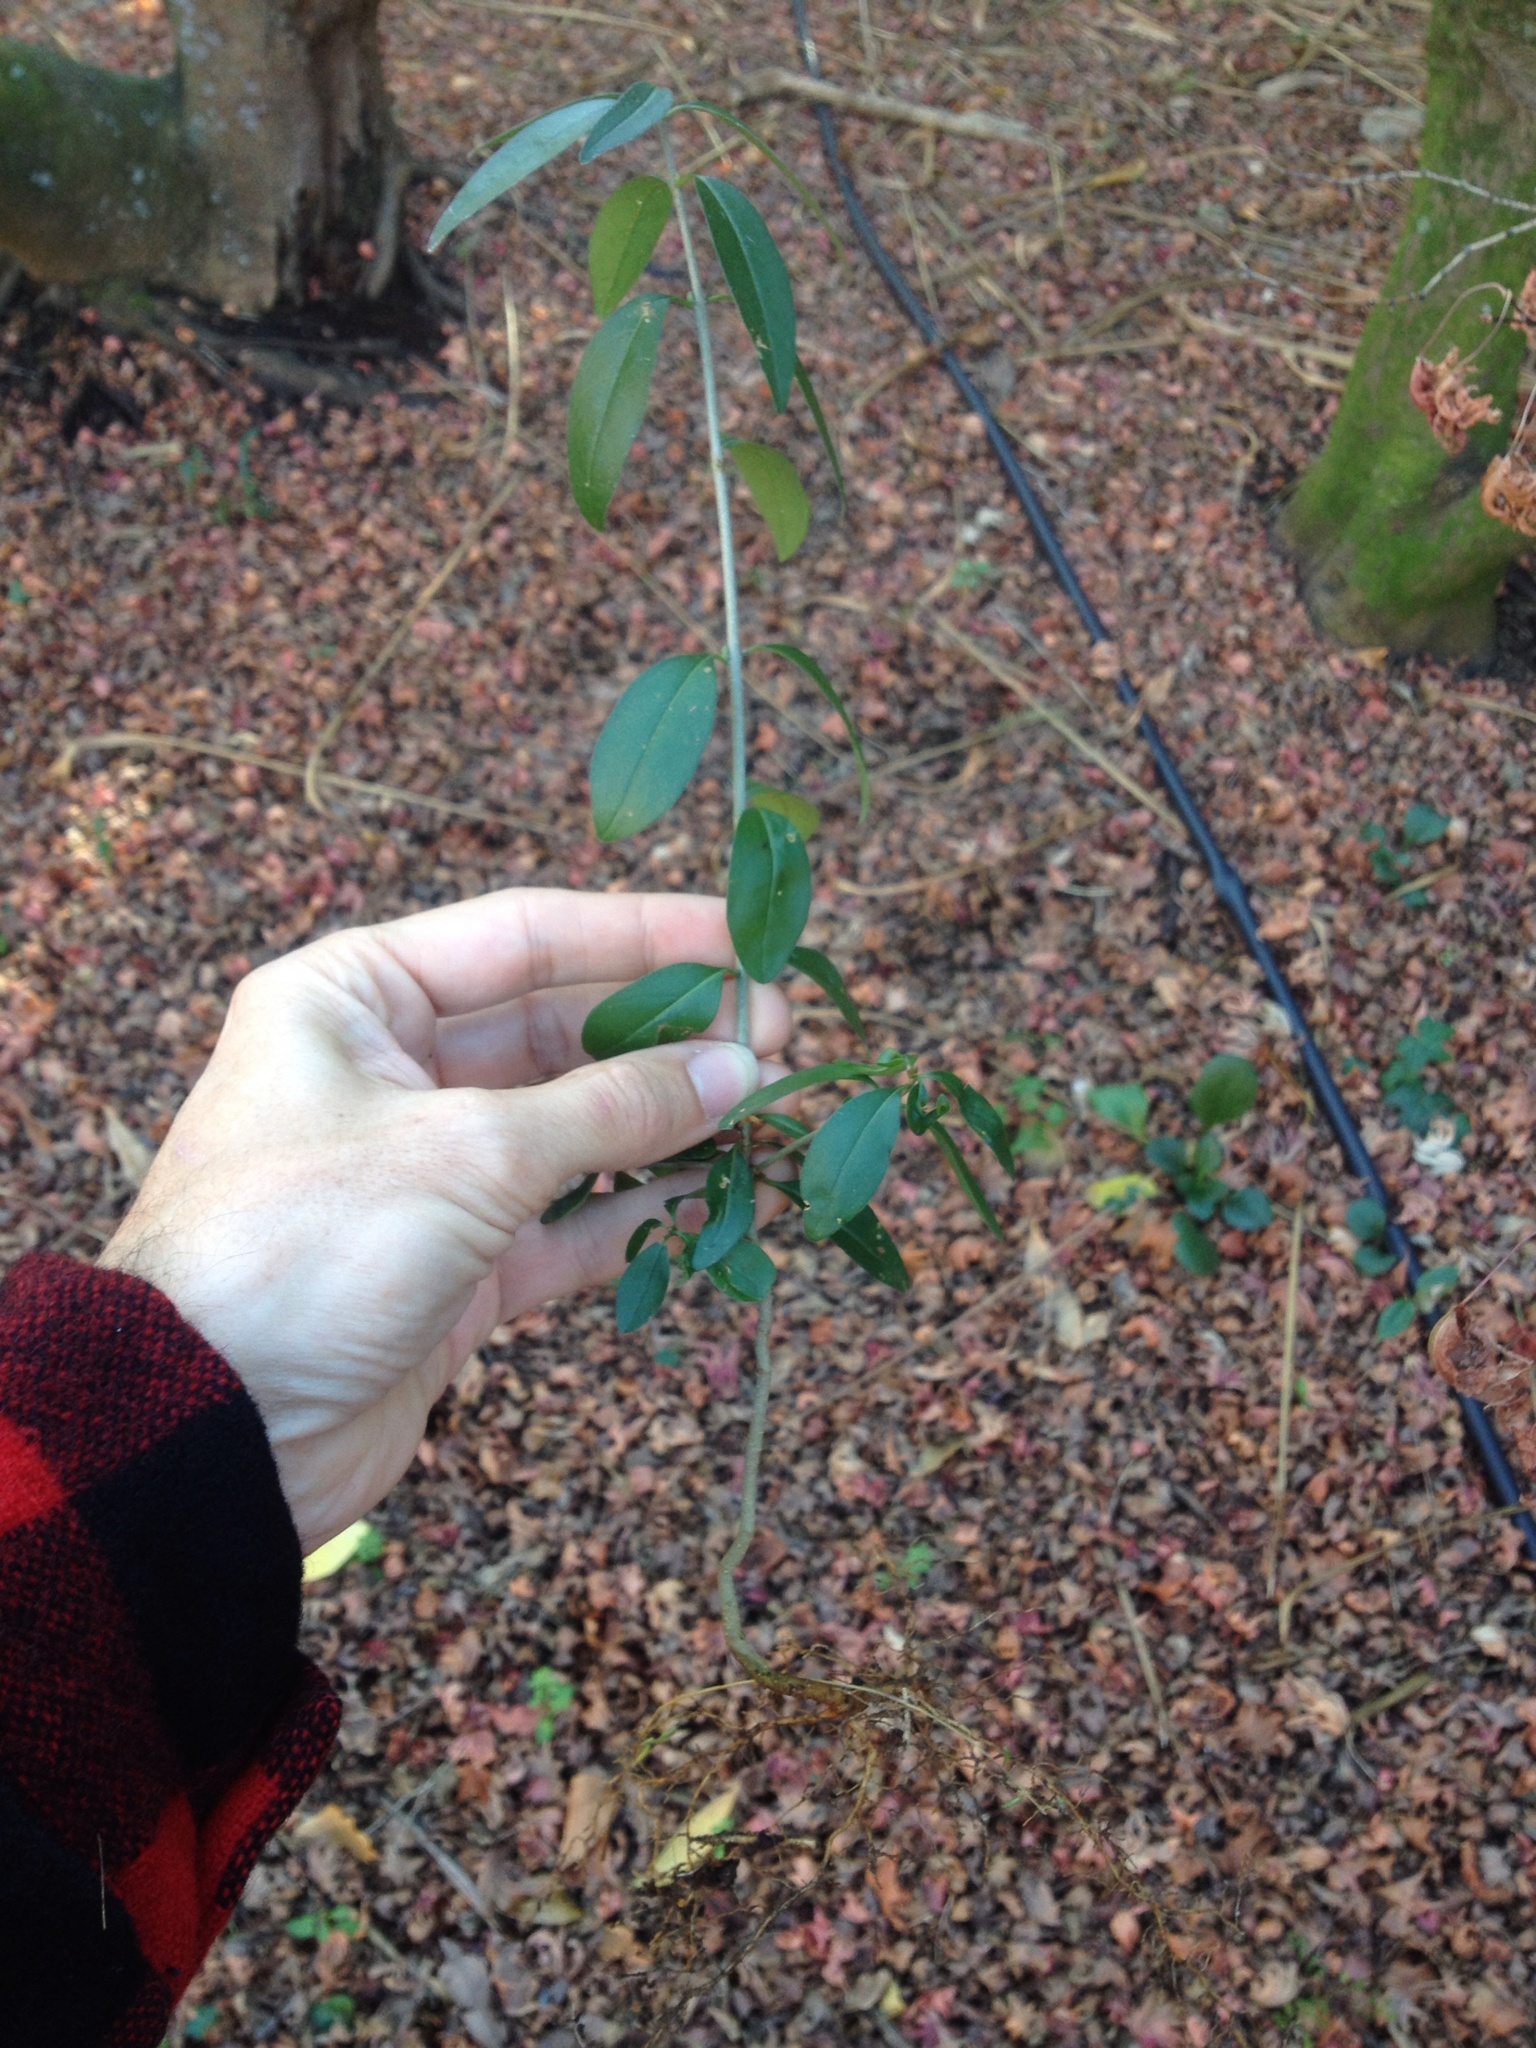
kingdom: Plantae
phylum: Tracheophyta
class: Magnoliopsida
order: Lamiales
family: Oleaceae
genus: Ligustrum
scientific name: Ligustrum vulgare
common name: Wild privet
